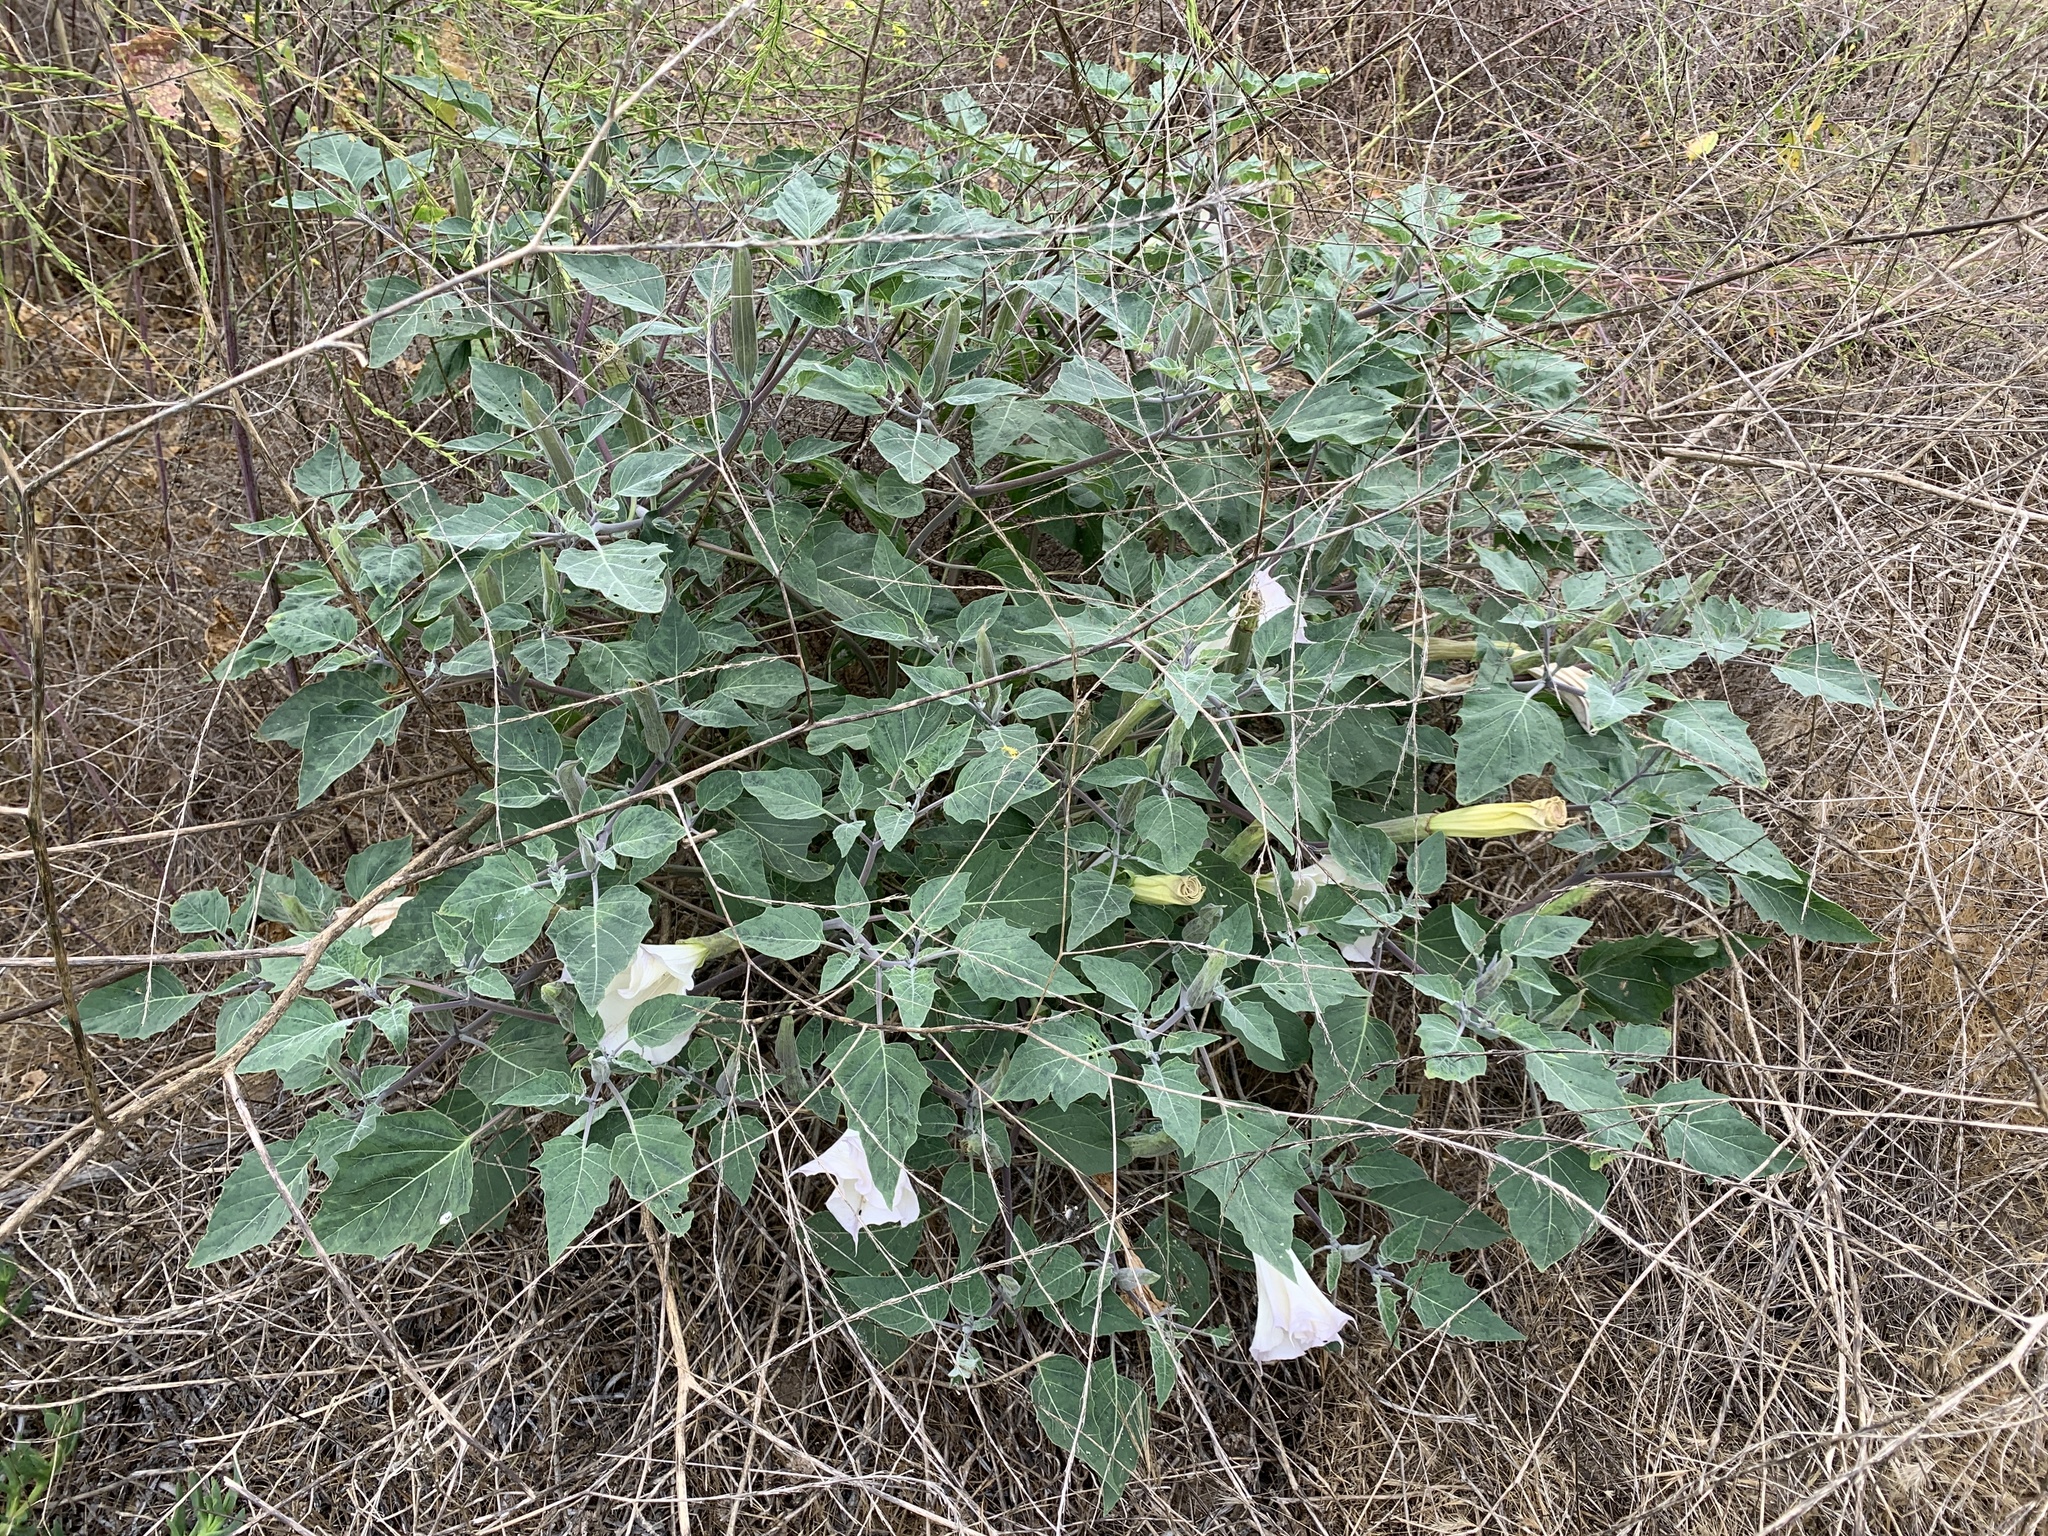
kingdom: Plantae
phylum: Tracheophyta
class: Magnoliopsida
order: Solanales
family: Solanaceae
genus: Datura
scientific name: Datura wrightii
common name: Sacred thorn-apple
